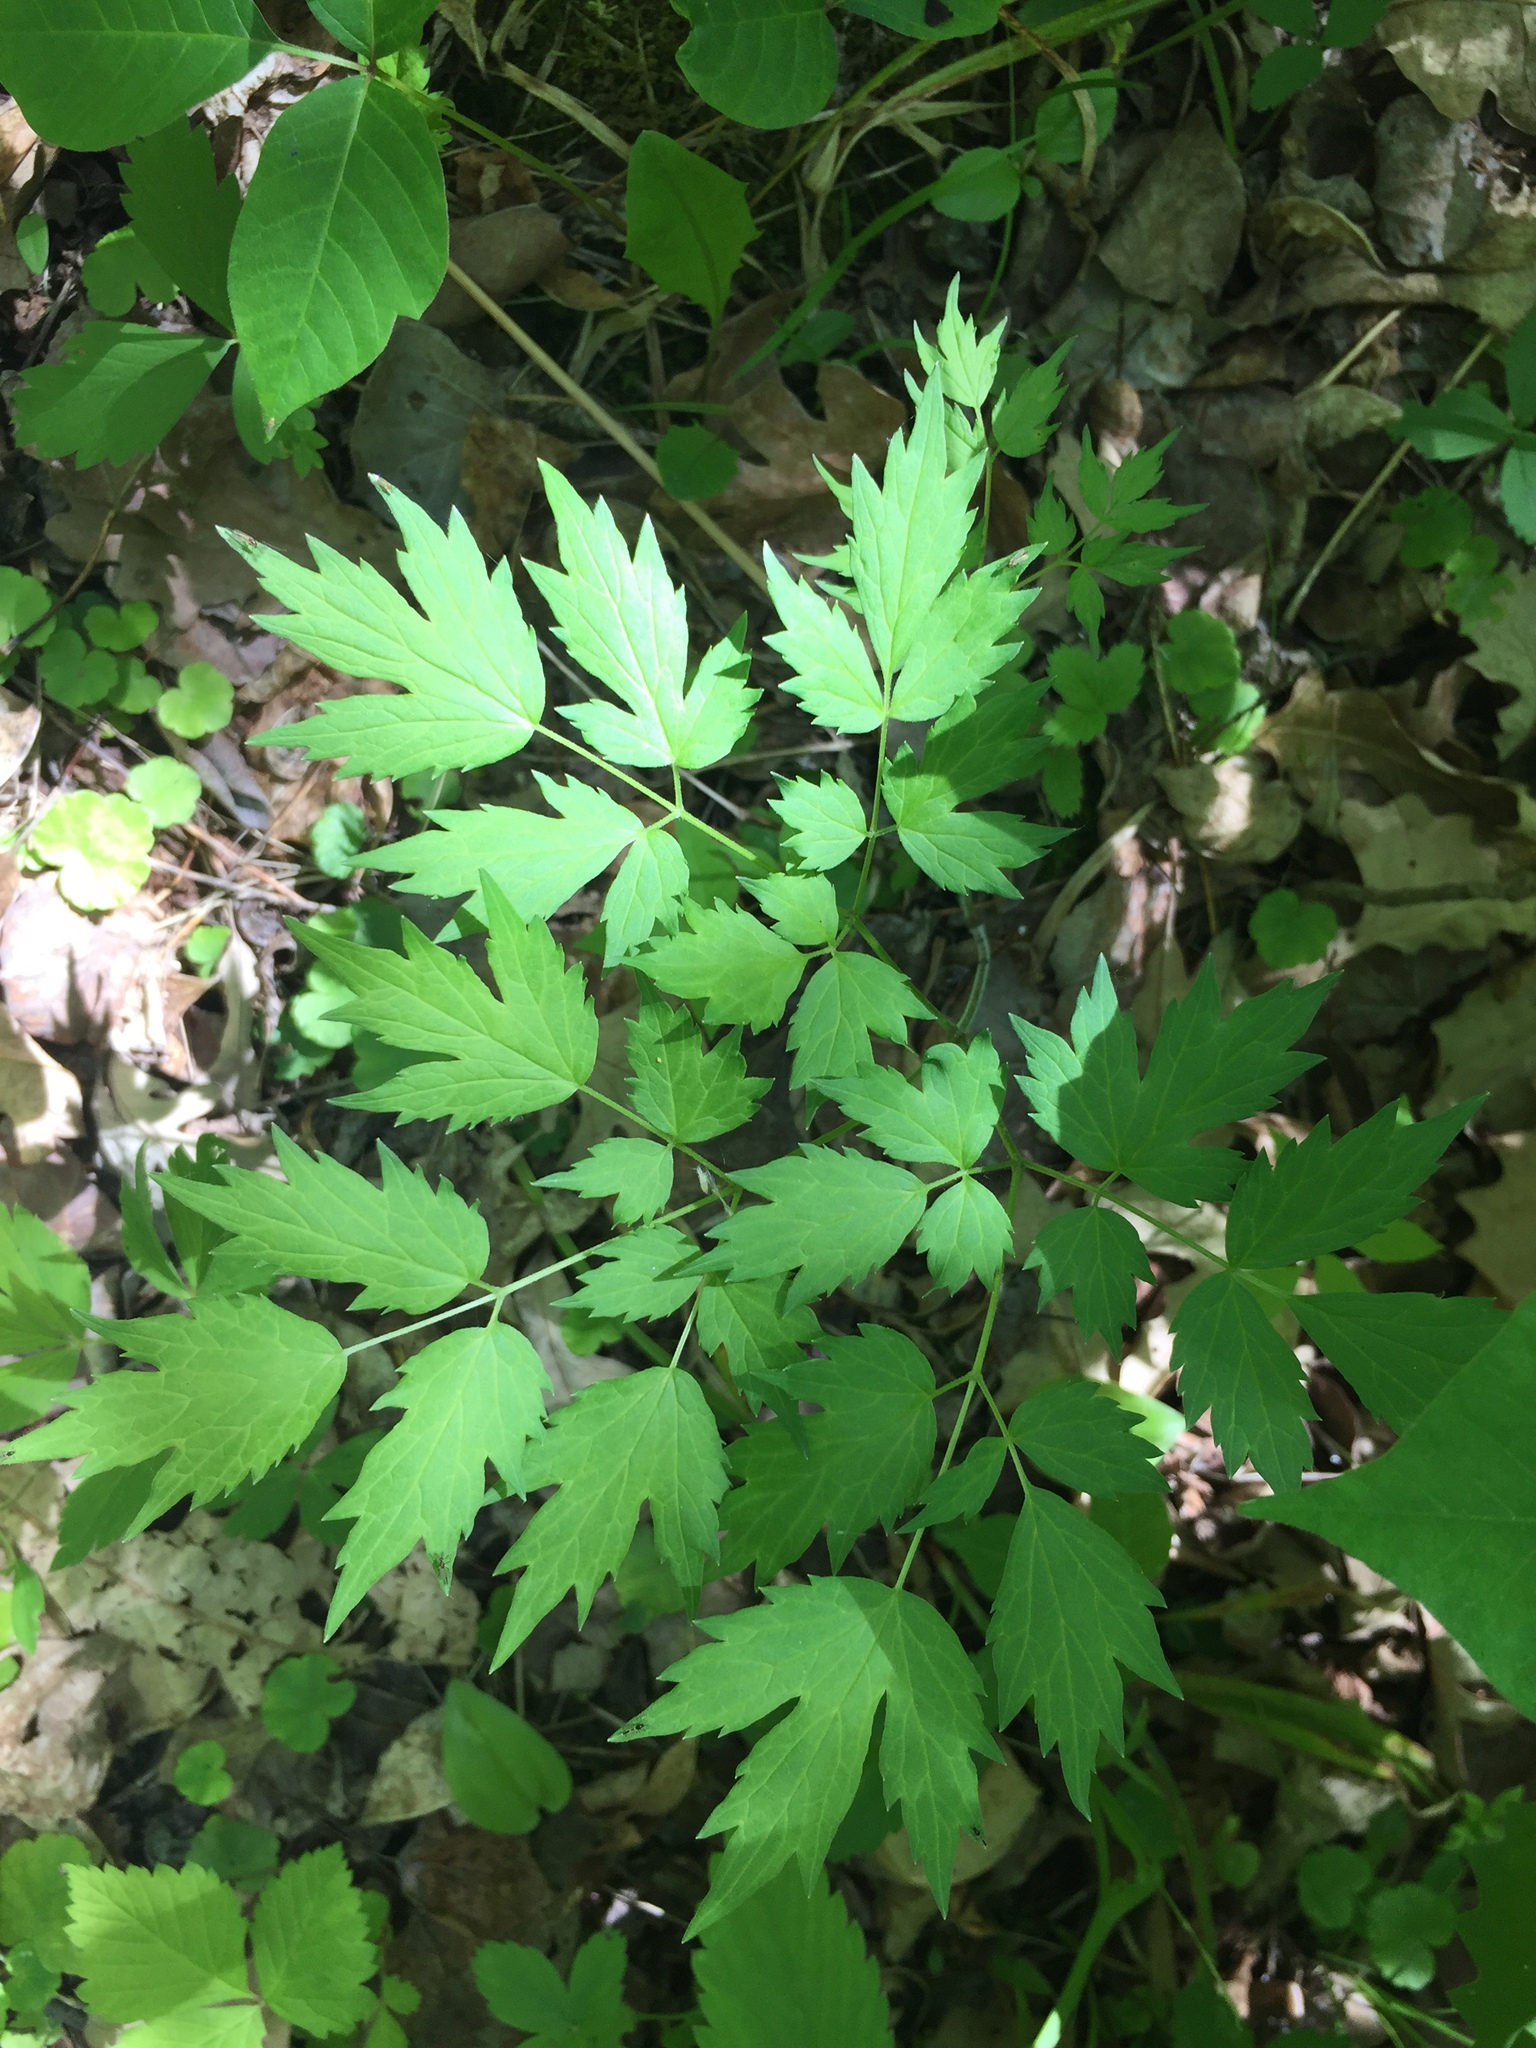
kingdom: Plantae
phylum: Tracheophyta
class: Magnoliopsida
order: Ranunculales
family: Ranunculaceae
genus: Actaea
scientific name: Actaea rubra
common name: Red baneberry
